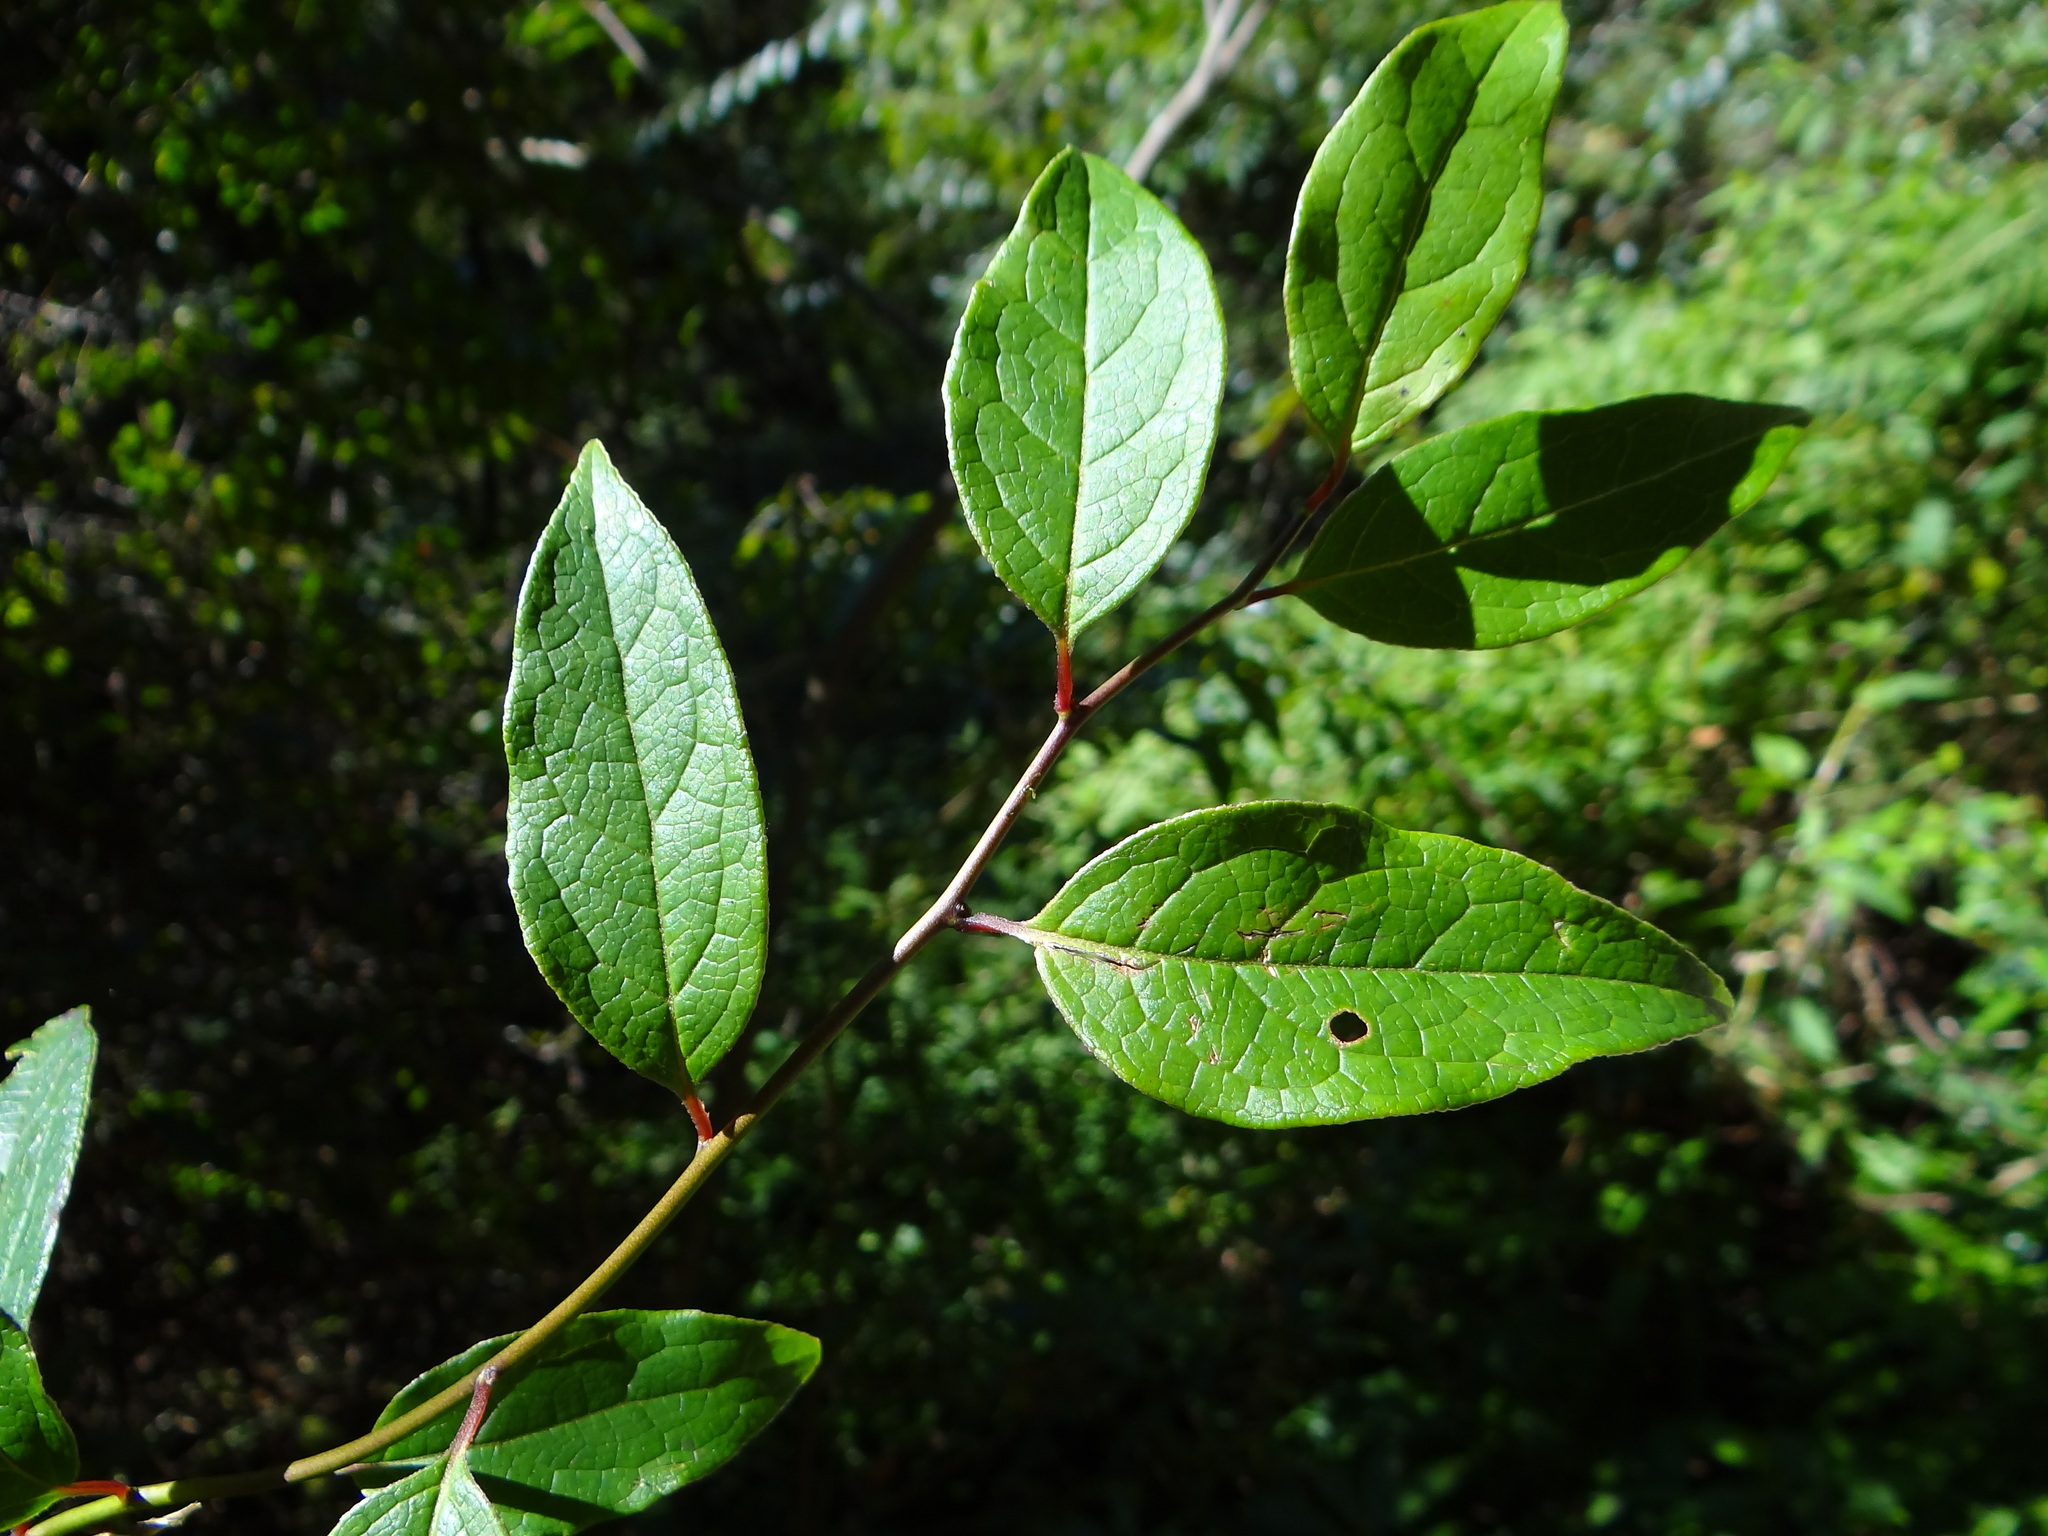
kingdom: Plantae
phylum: Tracheophyta
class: Magnoliopsida
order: Proteales
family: Sabiaceae
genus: Sabia
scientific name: Sabia transarisanensis
